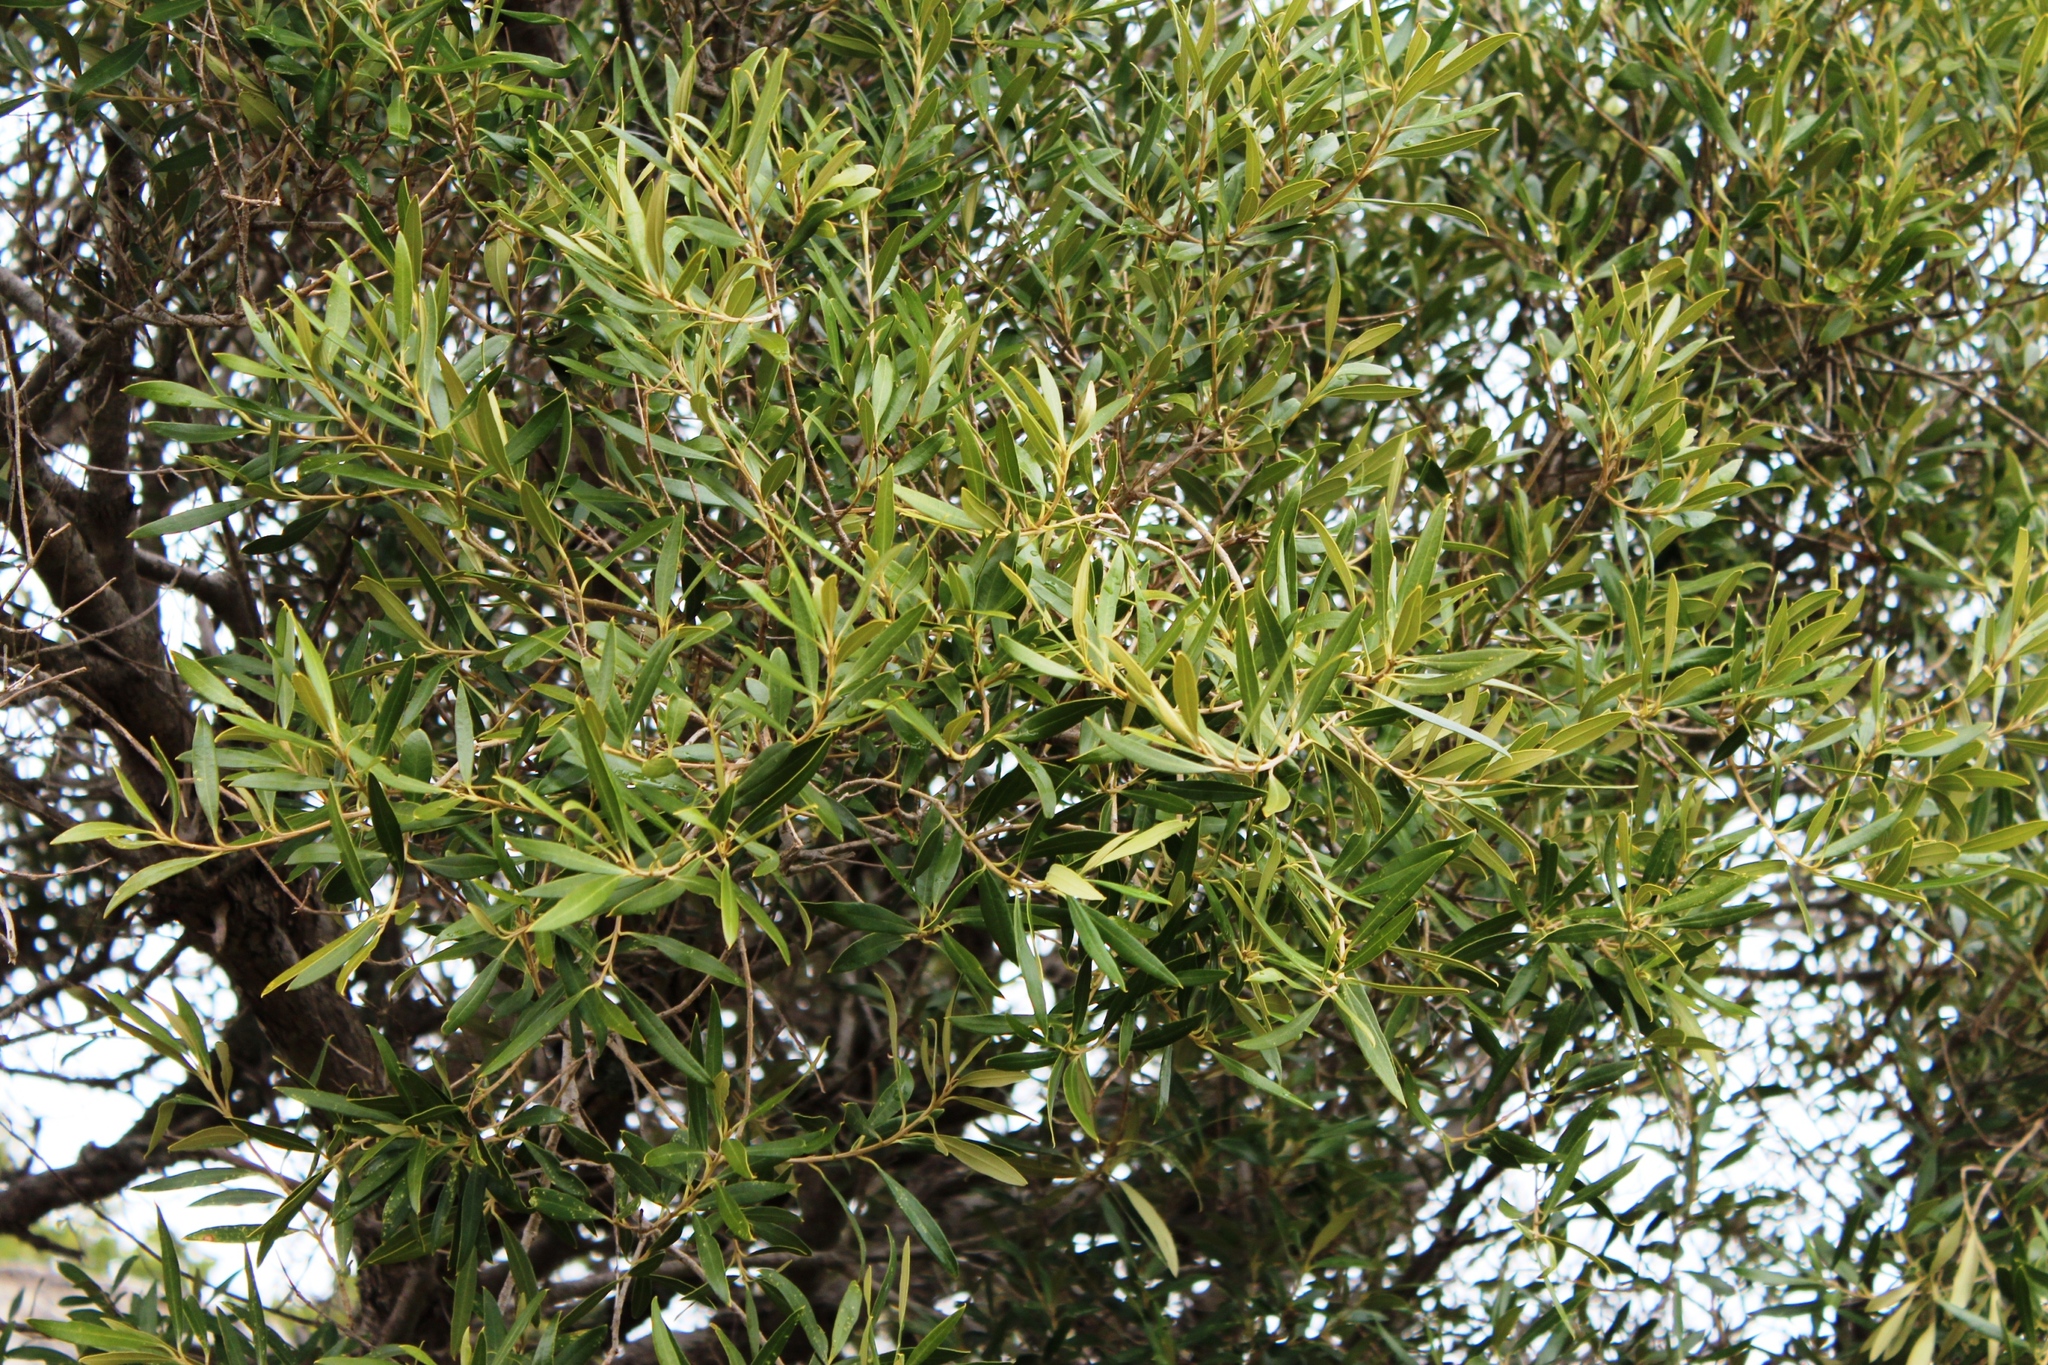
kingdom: Plantae
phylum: Tracheophyta
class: Magnoliopsida
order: Lamiales
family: Oleaceae
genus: Olea
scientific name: Olea europaea
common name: Olive
